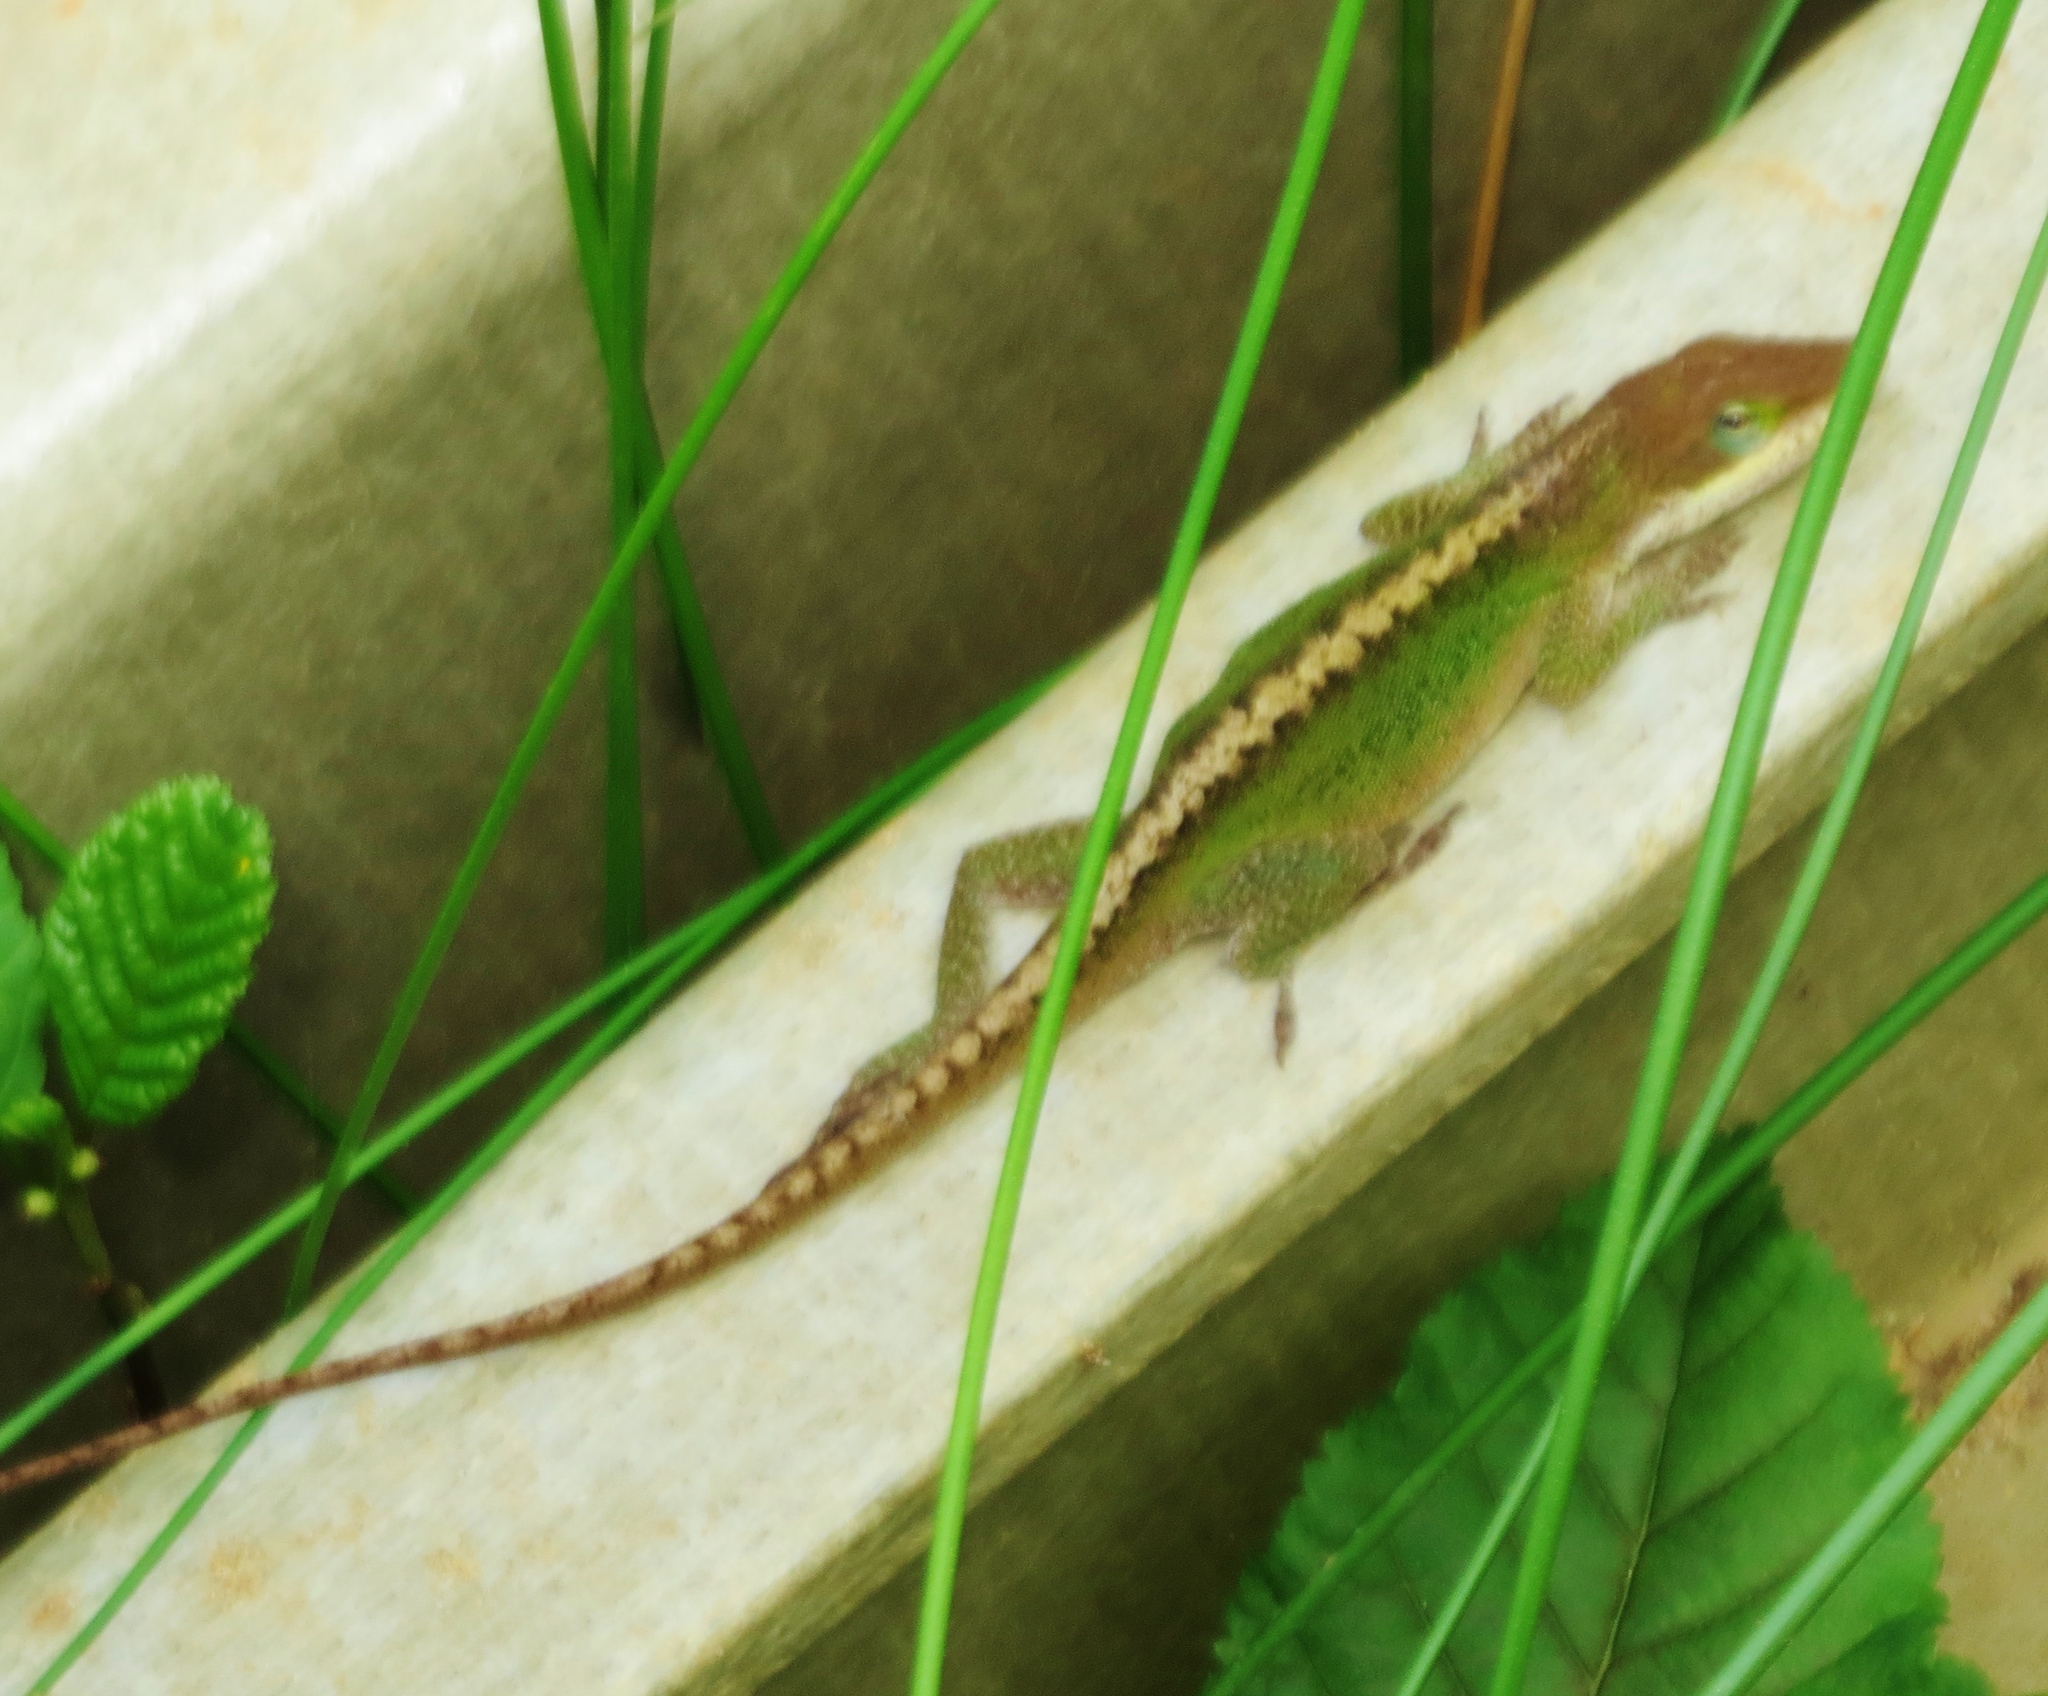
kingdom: Animalia
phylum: Chordata
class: Squamata
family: Dactyloidae
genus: Anolis
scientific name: Anolis carolinensis
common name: Green anole
